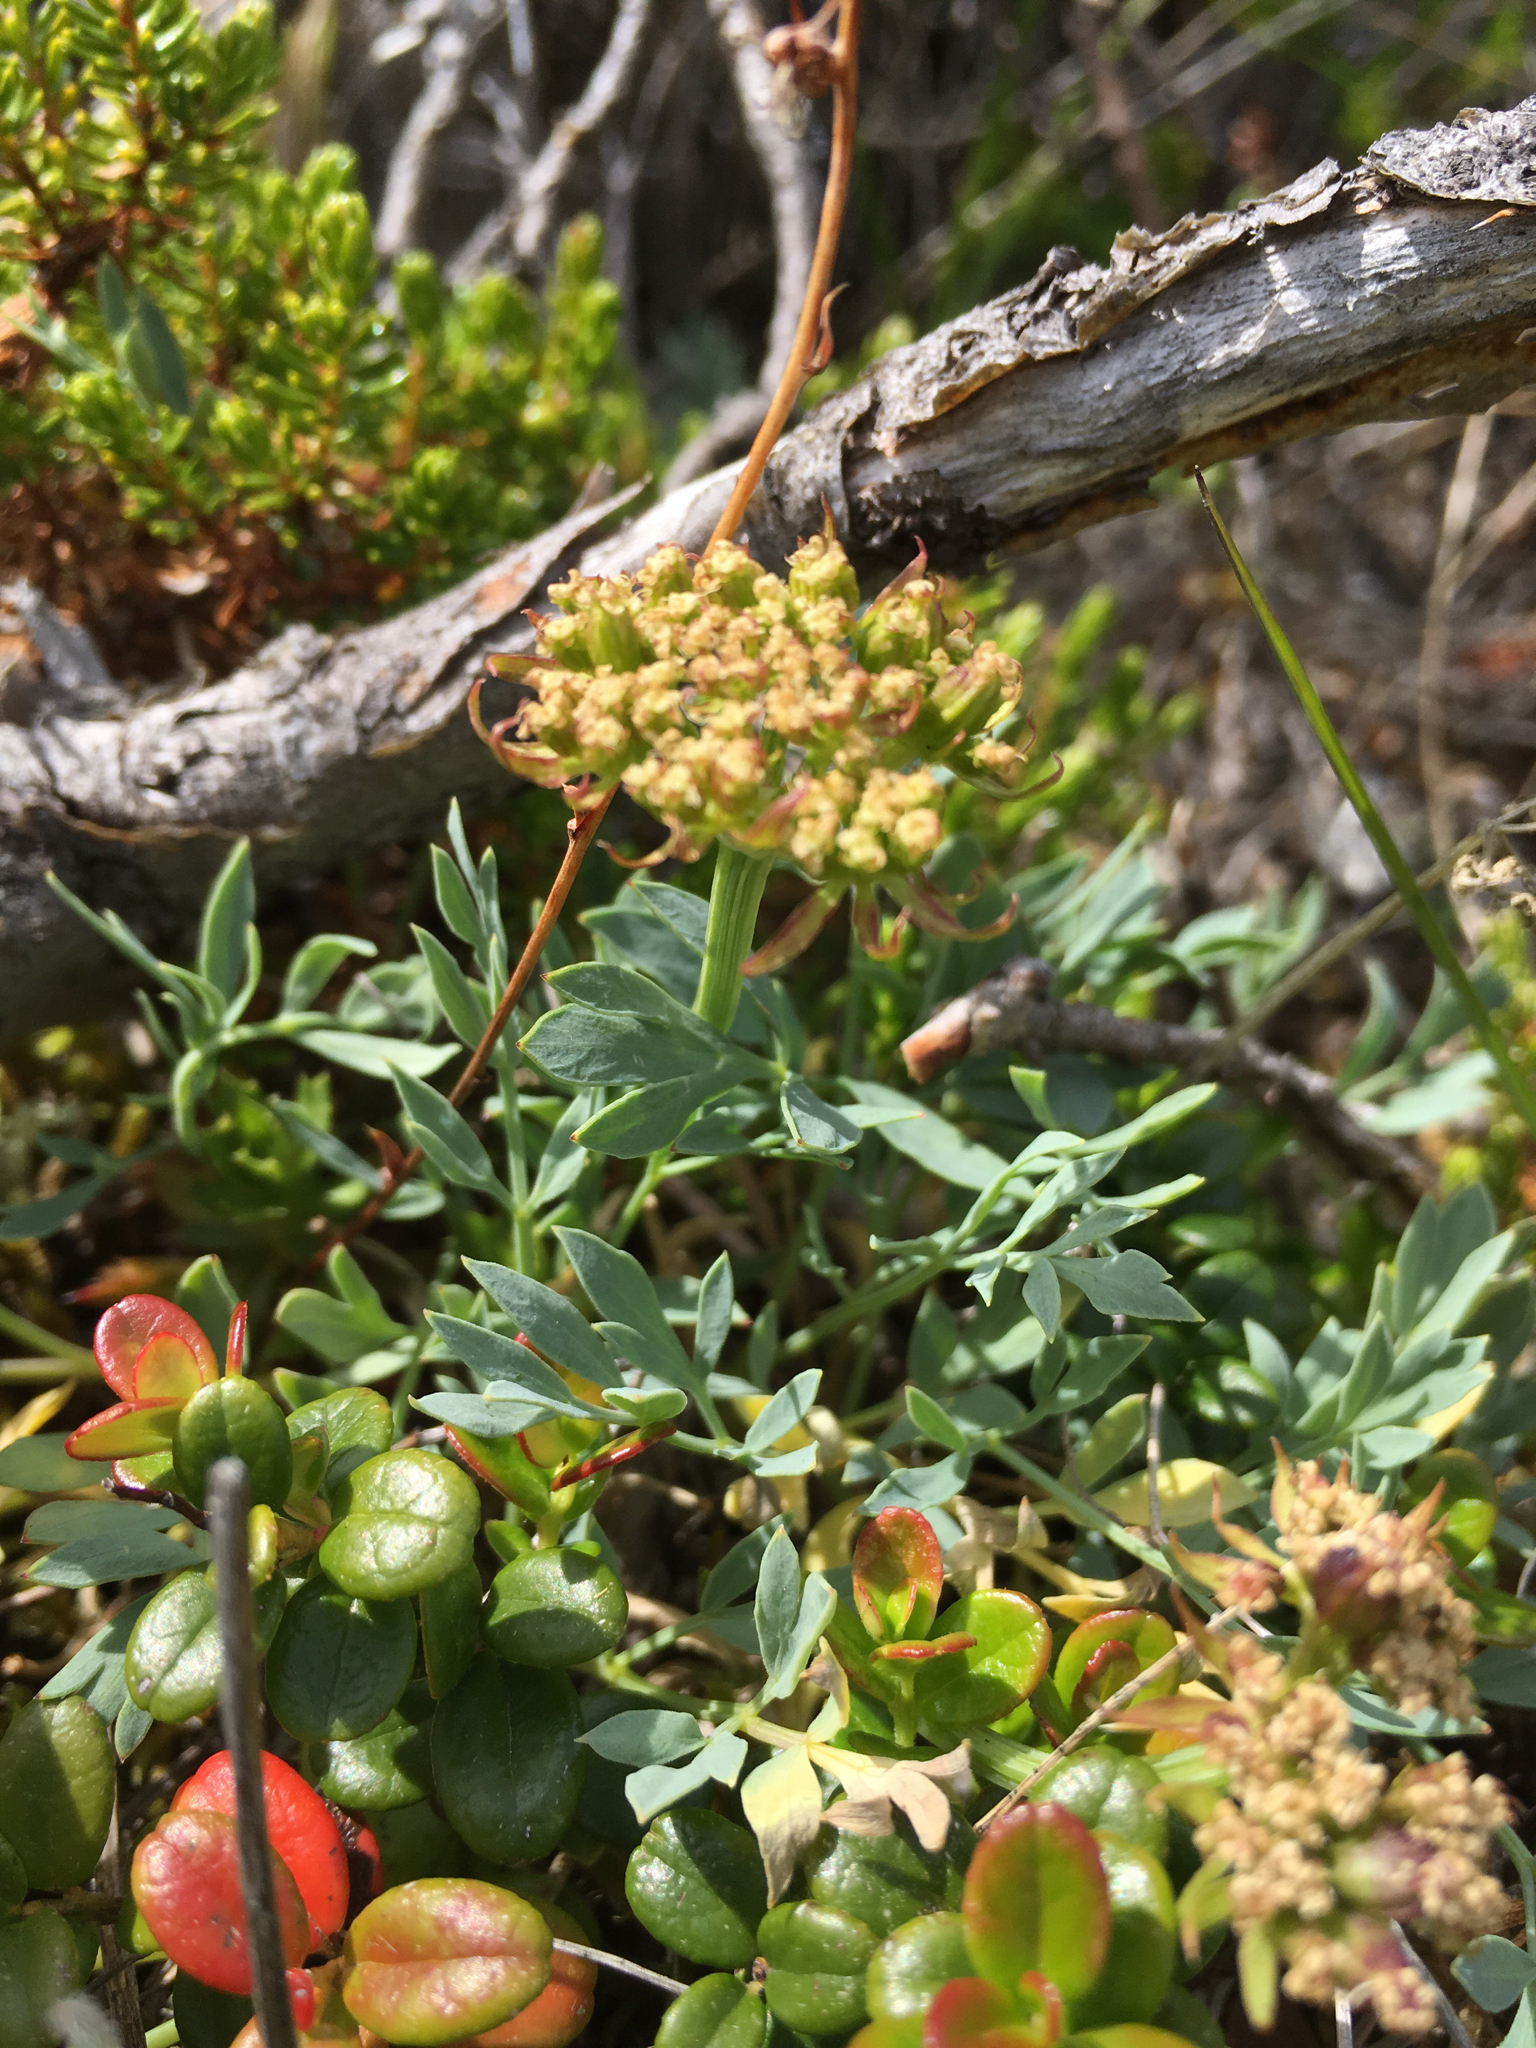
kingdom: Plantae
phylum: Tracheophyta
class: Magnoliopsida
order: Apiales
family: Apiaceae
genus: Podistera
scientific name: Podistera yukonensis
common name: Yukon podistera
